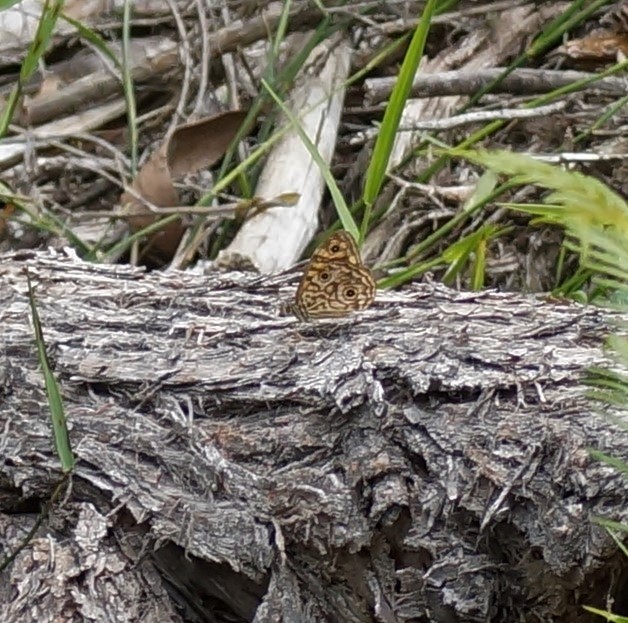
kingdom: Animalia
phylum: Arthropoda
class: Insecta
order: Lepidoptera
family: Nymphalidae
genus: Geitoneura
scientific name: Geitoneura acantha
